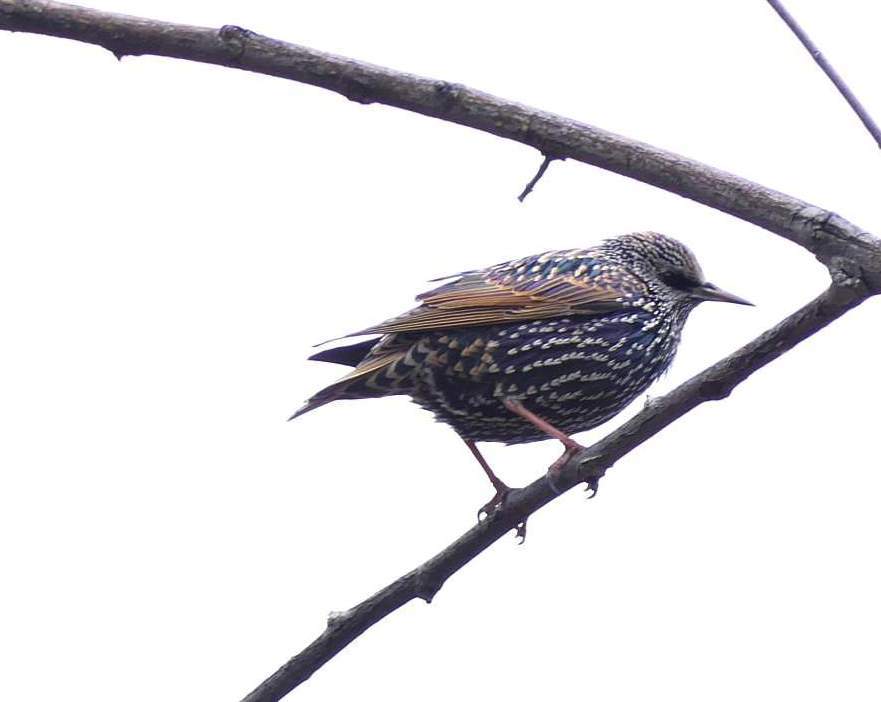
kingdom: Animalia
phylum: Chordata
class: Aves
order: Passeriformes
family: Sturnidae
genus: Sturnus
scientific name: Sturnus vulgaris
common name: Common starling
